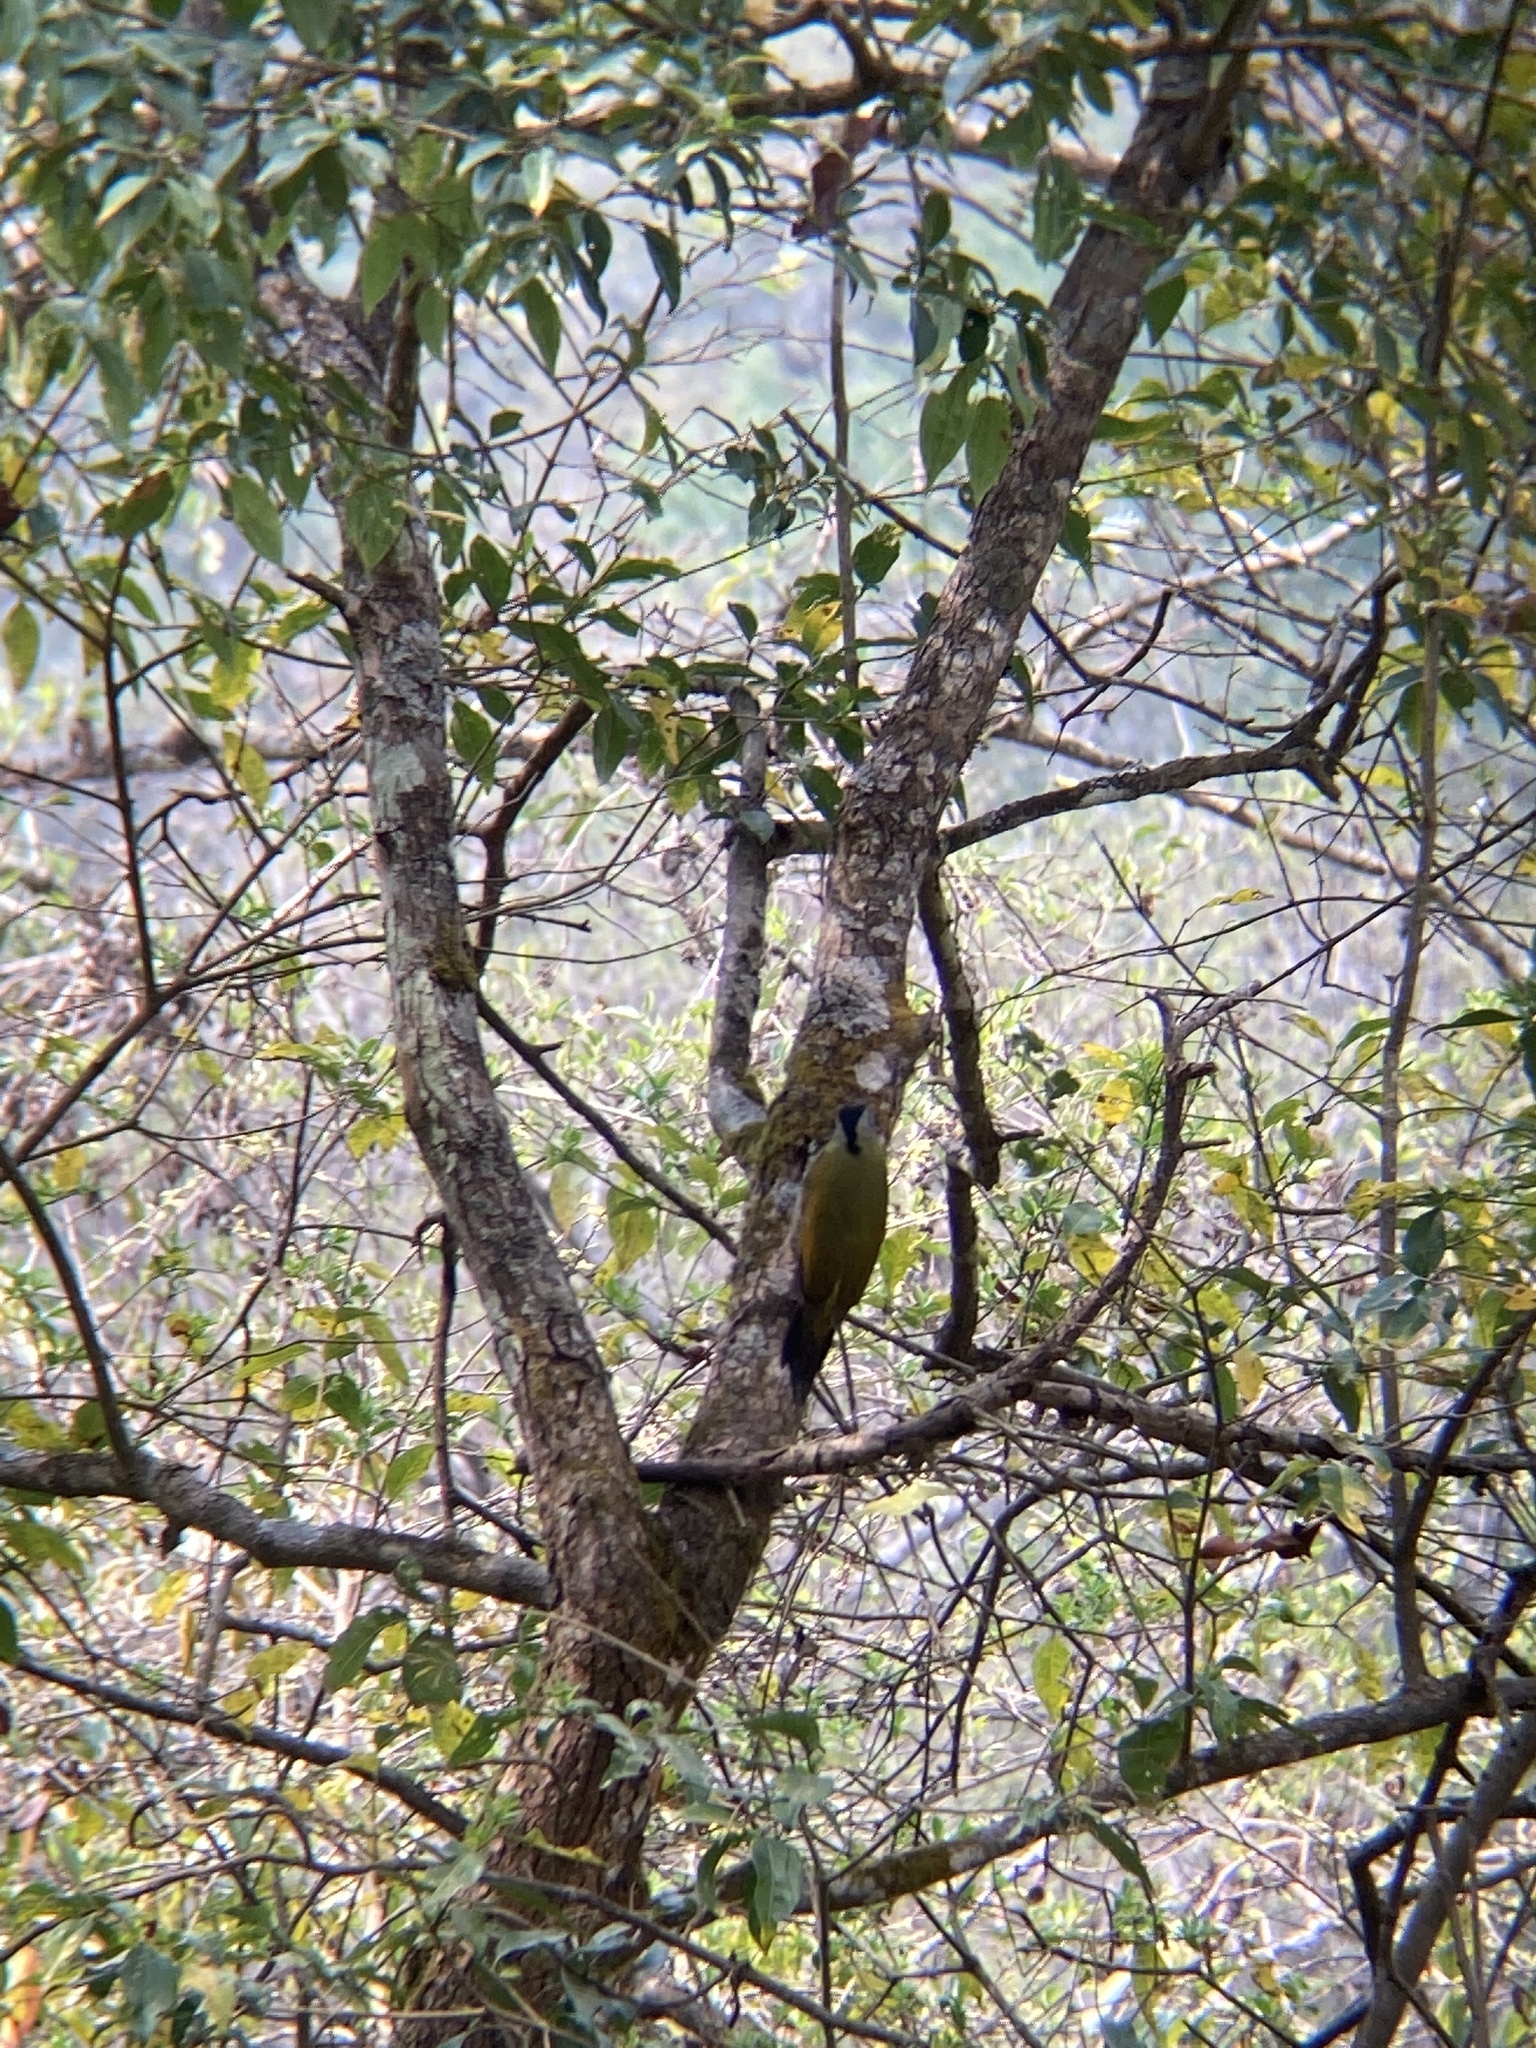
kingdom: Animalia
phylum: Chordata
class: Aves
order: Piciformes
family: Picidae
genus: Picus
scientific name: Picus canus
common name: Grey-headed woodpecker
